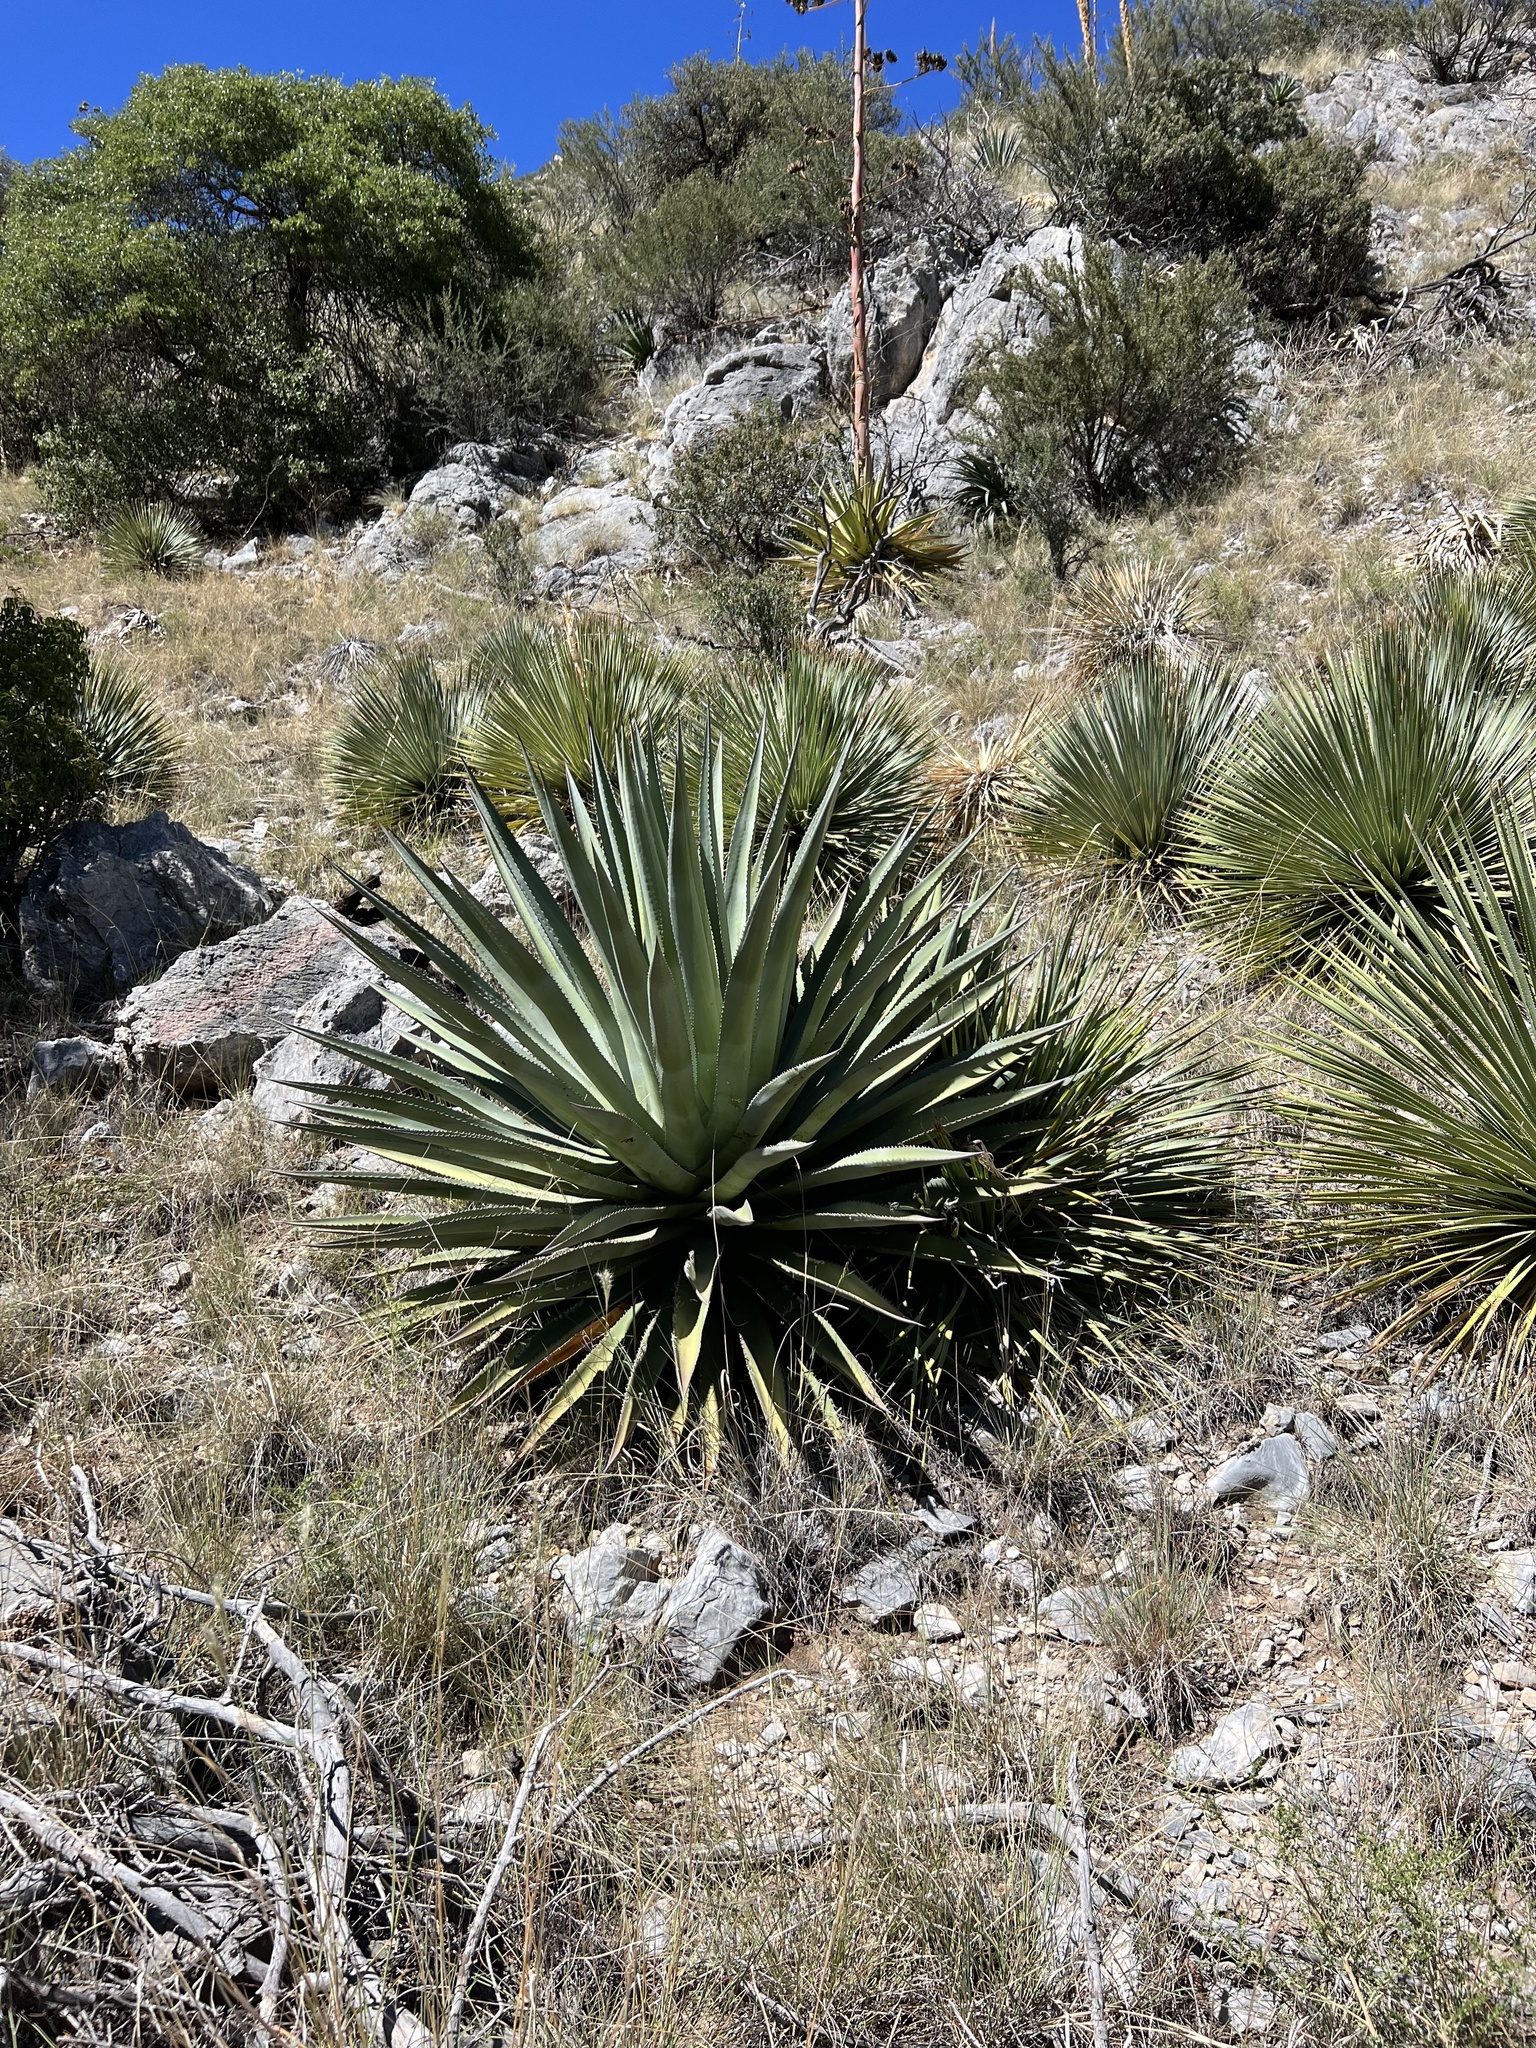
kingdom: Plantae
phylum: Tracheophyta
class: Liliopsida
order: Asparagales
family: Asparagaceae
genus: Agave
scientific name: Agave palmeri
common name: Palmer agave
